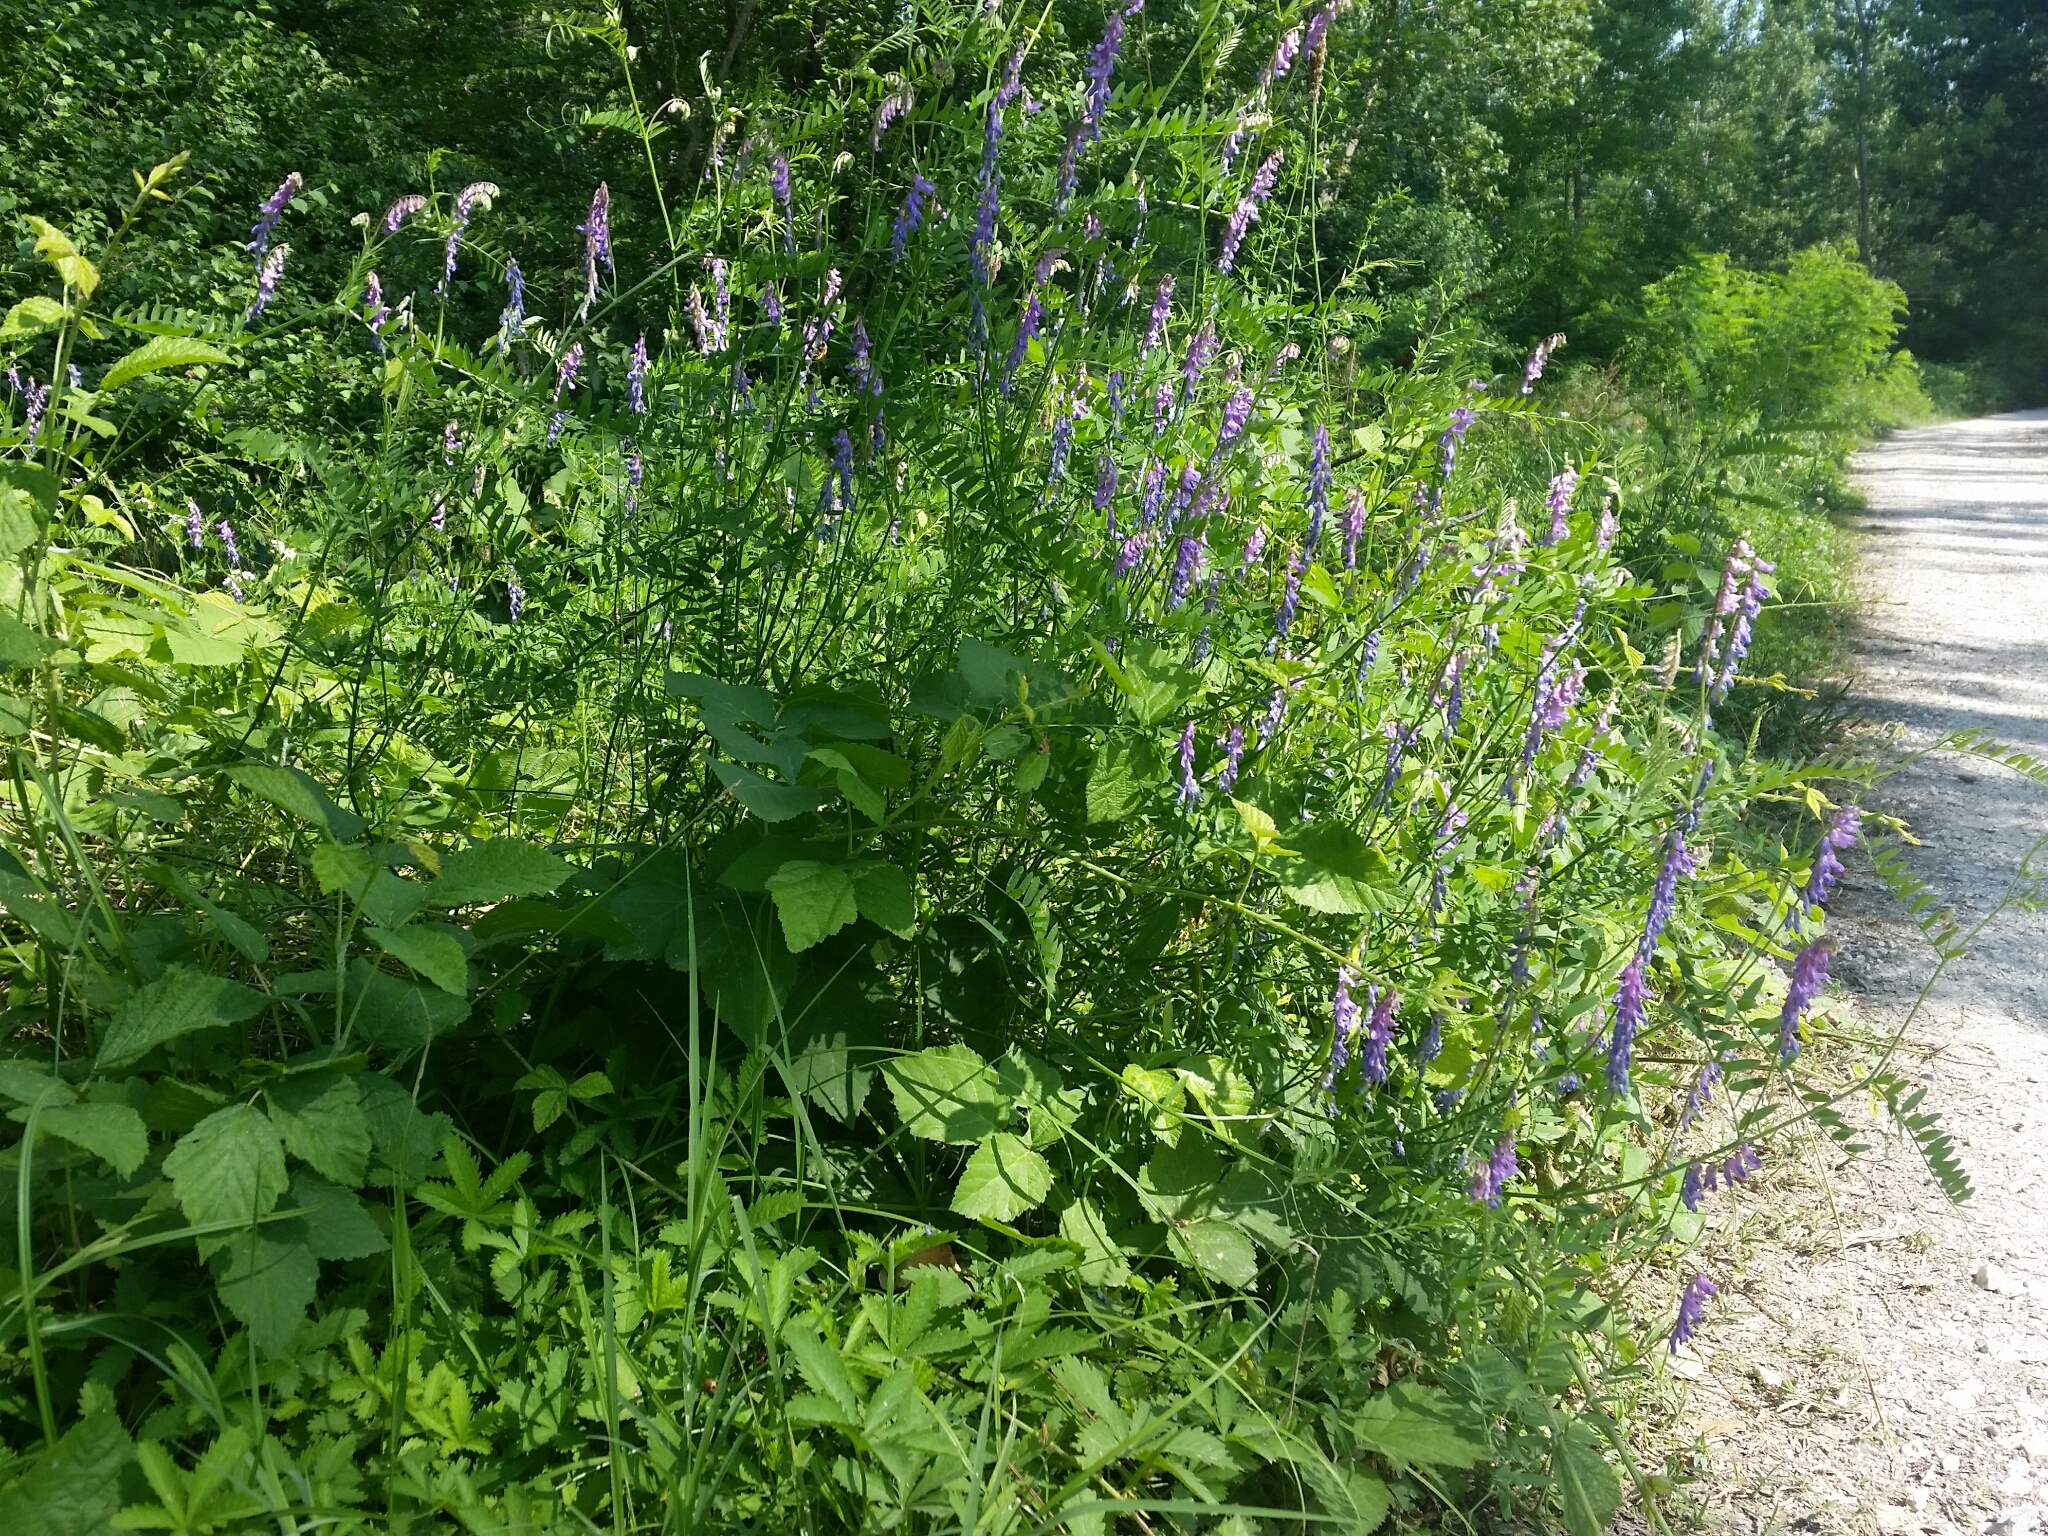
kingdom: Plantae
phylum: Tracheophyta
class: Magnoliopsida
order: Fabales
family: Fabaceae
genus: Vicia
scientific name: Vicia tenuifolia
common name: Fine-leaved vetch
